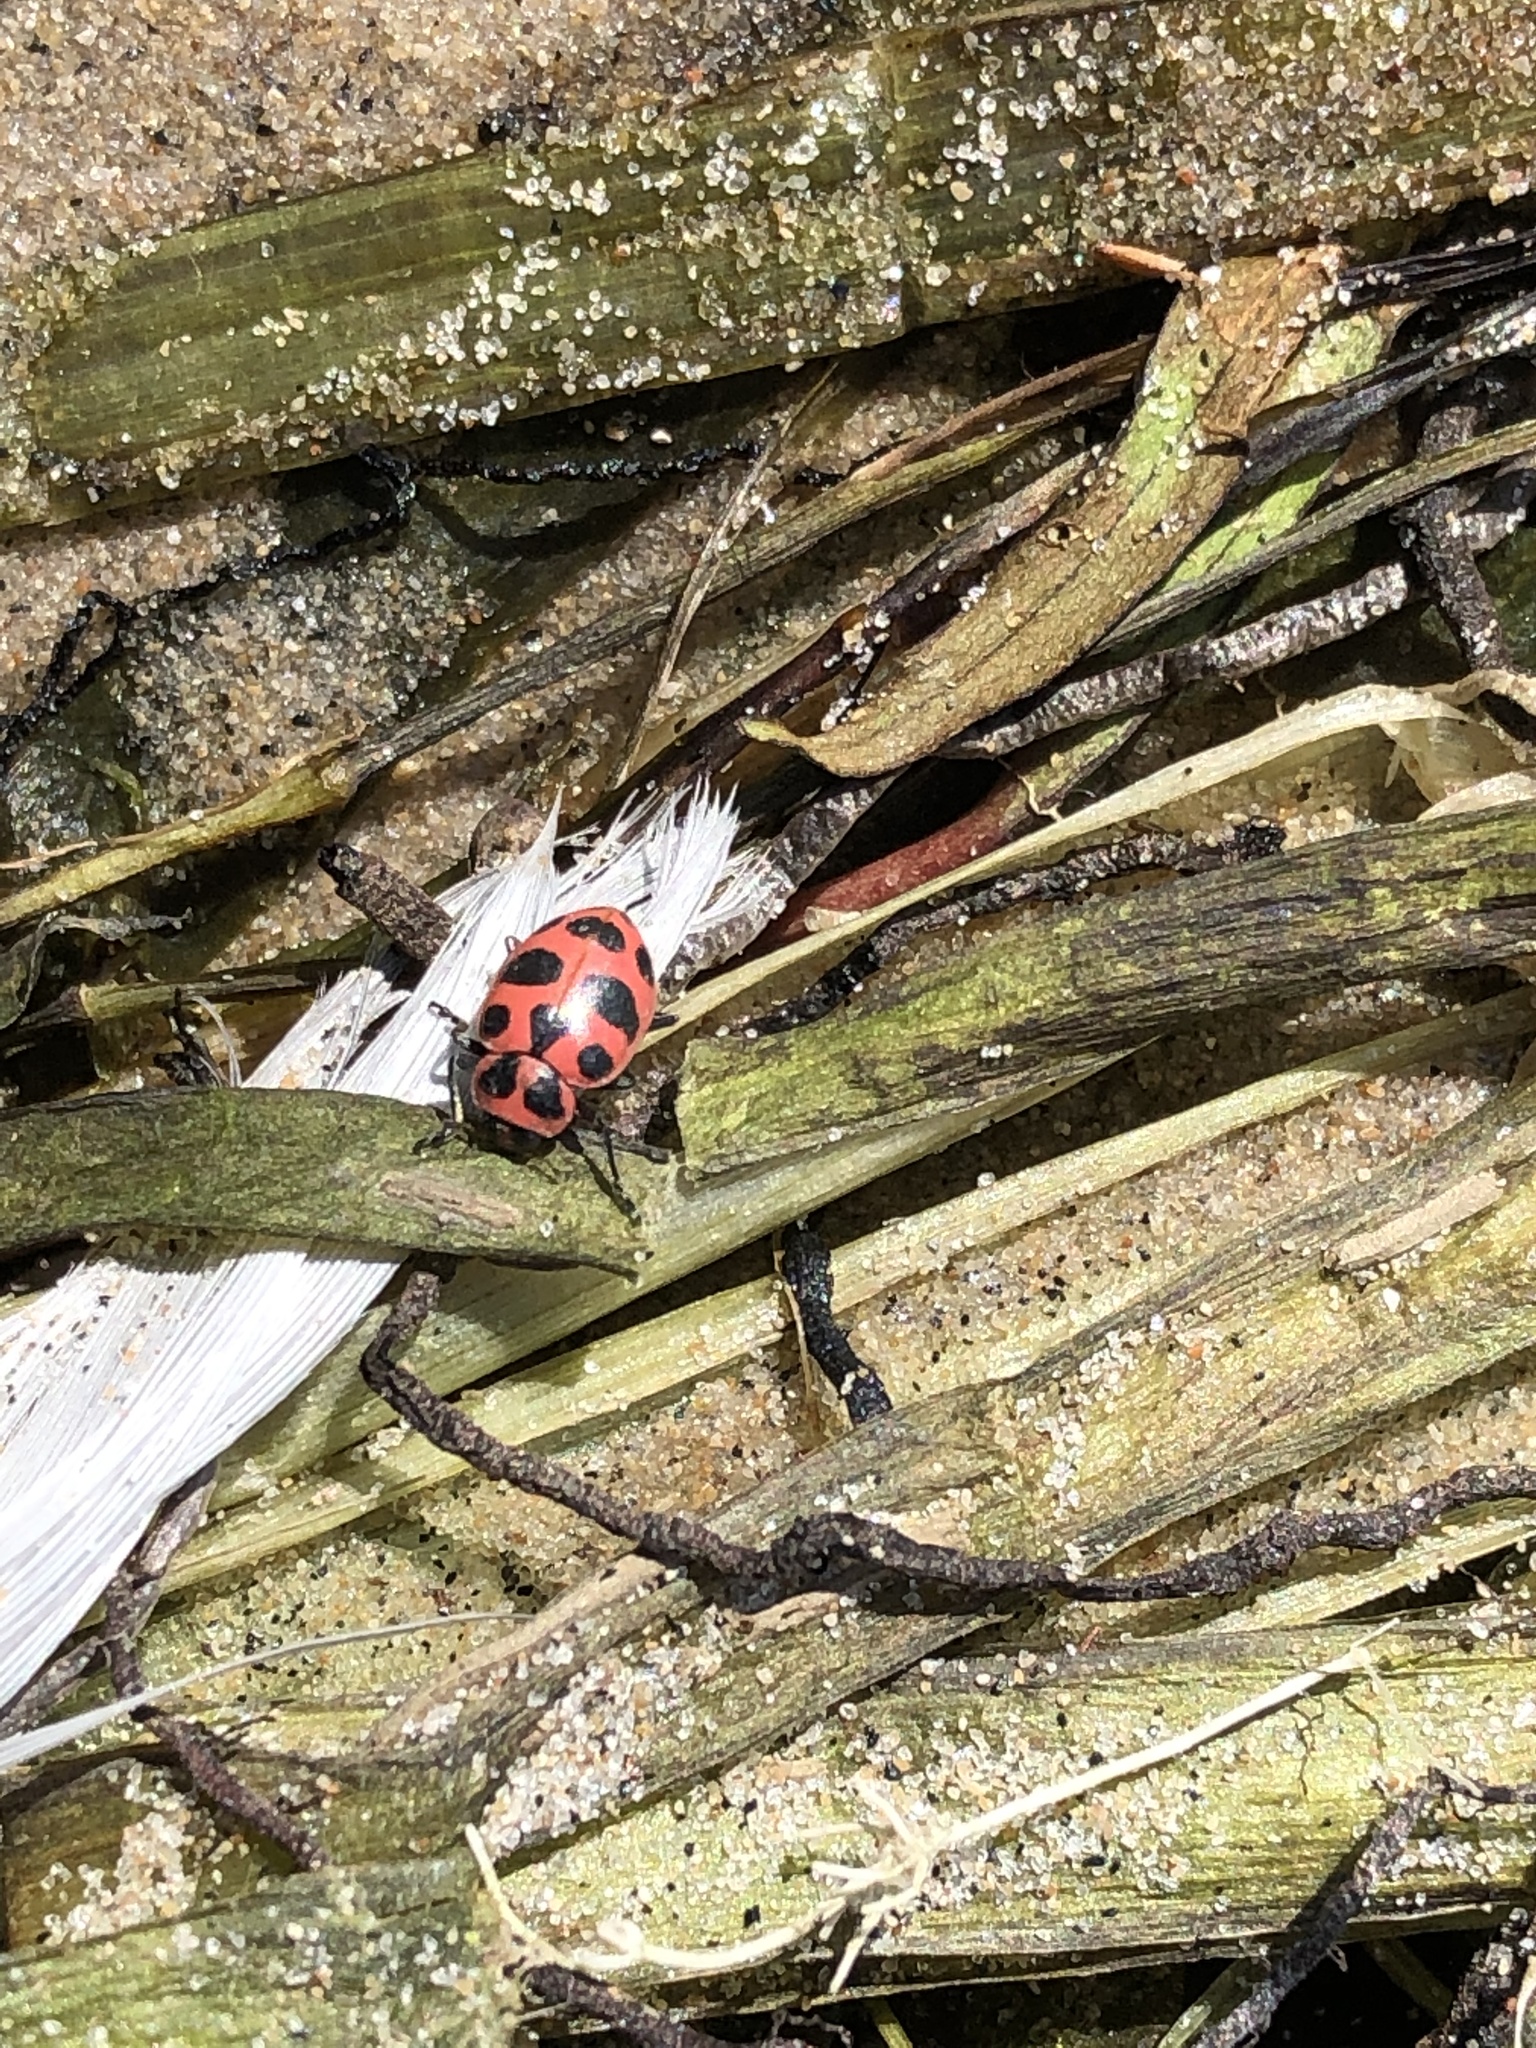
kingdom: Animalia
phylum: Arthropoda
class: Insecta
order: Coleoptera
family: Coccinellidae
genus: Coleomegilla
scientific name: Coleomegilla maculata
